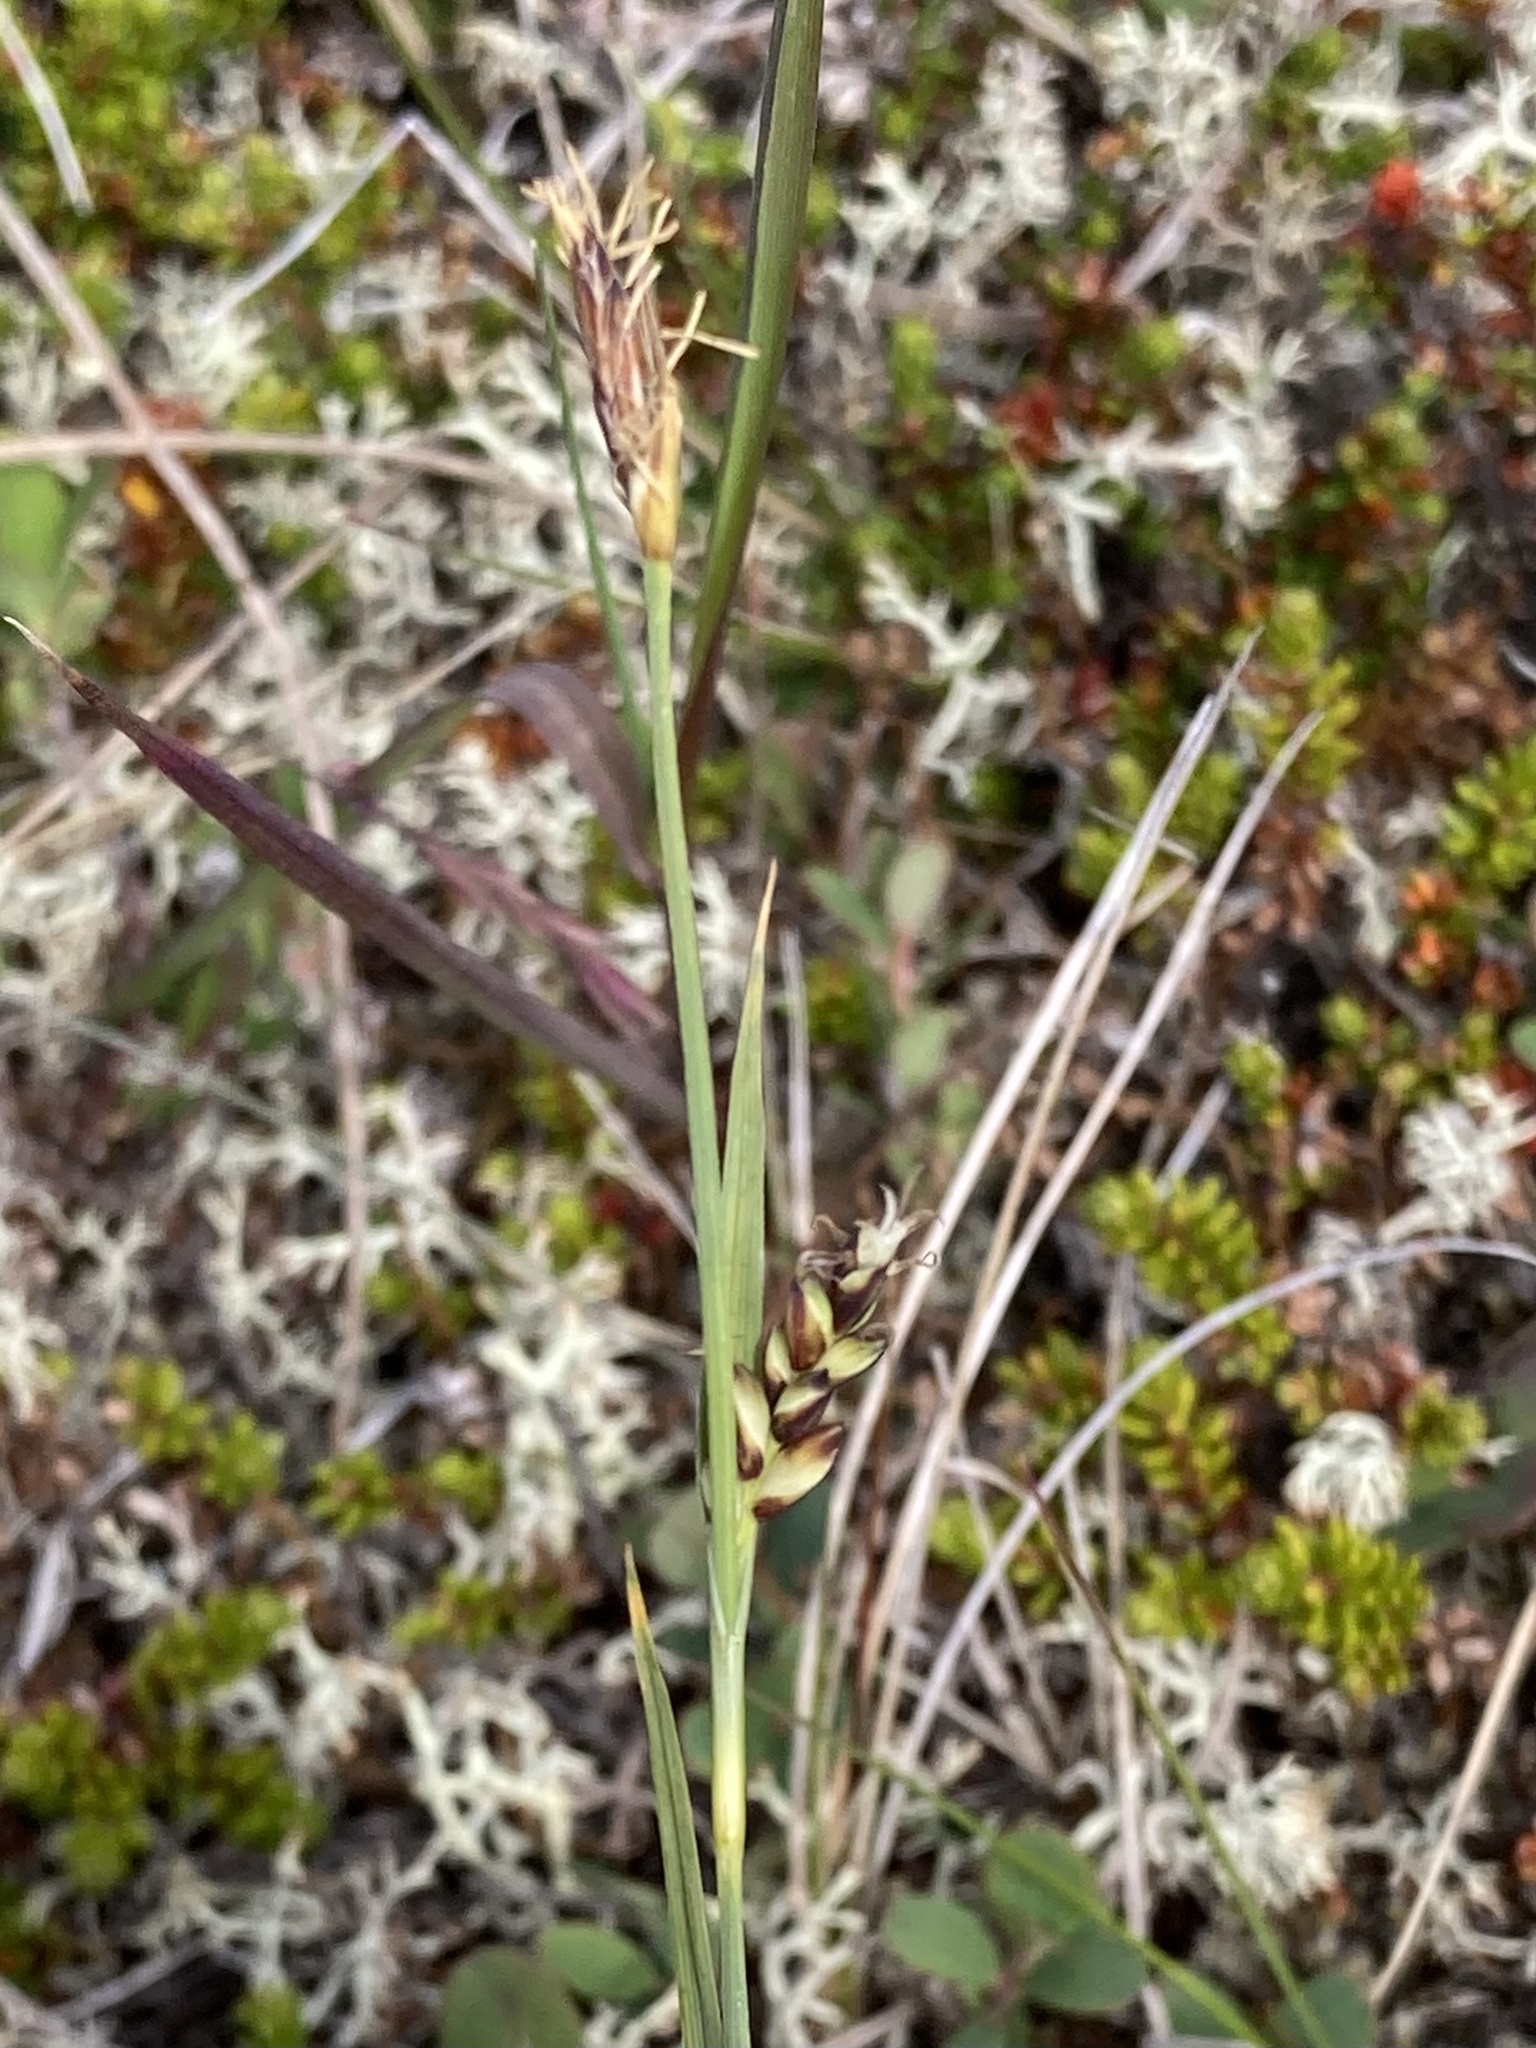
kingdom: Plantae
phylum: Tracheophyta
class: Liliopsida
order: Poales
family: Cyperaceae
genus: Carex
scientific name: Carex panicea
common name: Carnation sedge
